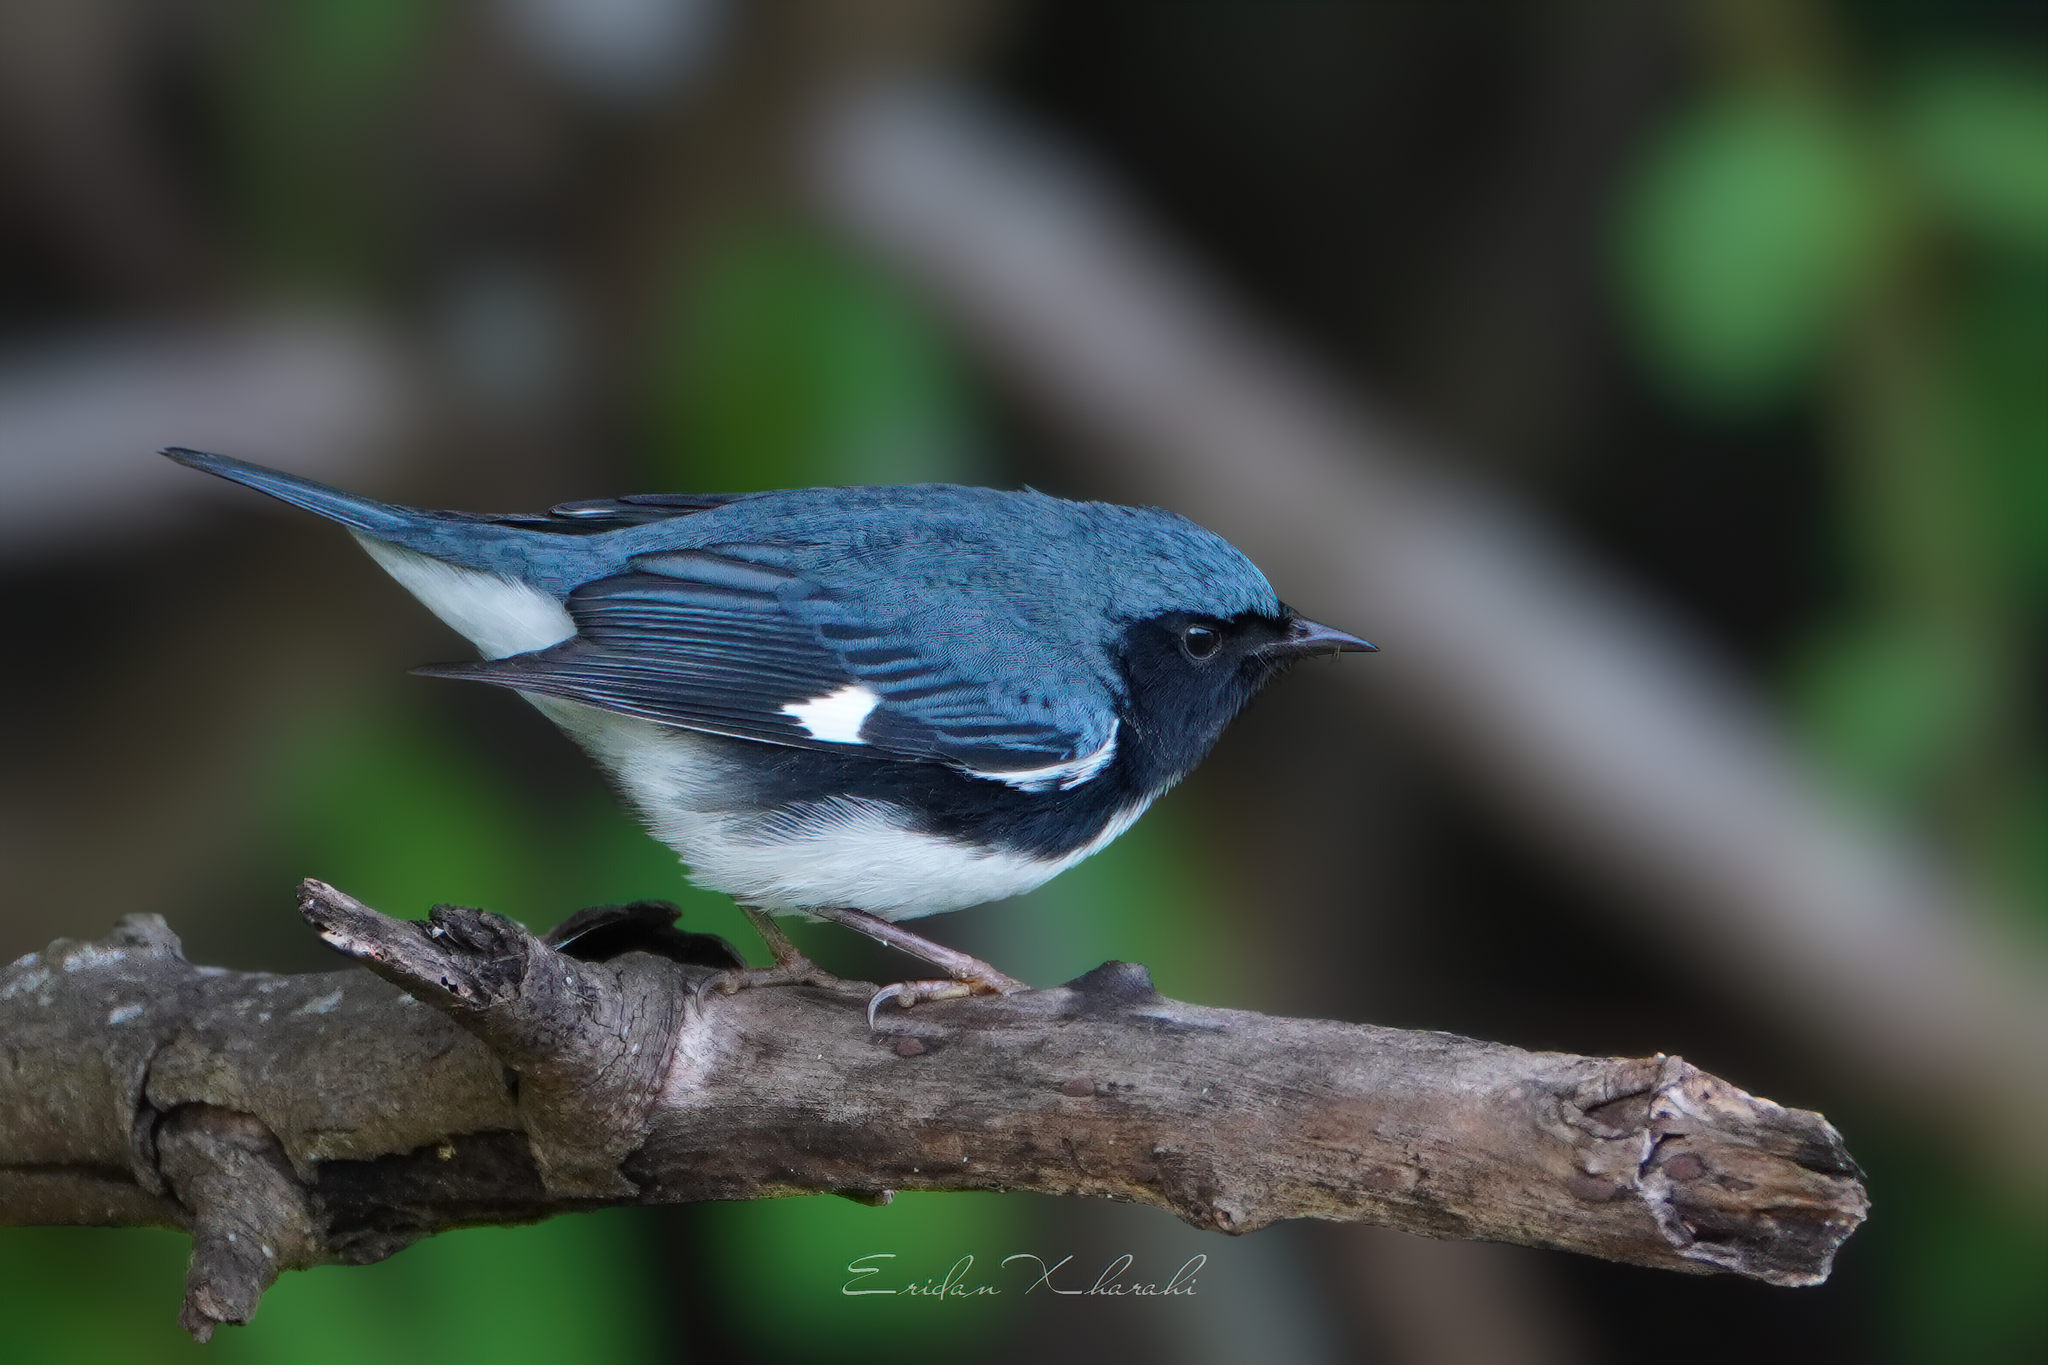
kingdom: Animalia
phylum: Chordata
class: Aves
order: Passeriformes
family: Parulidae
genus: Setophaga
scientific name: Setophaga caerulescens
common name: Black-throated blue warbler
